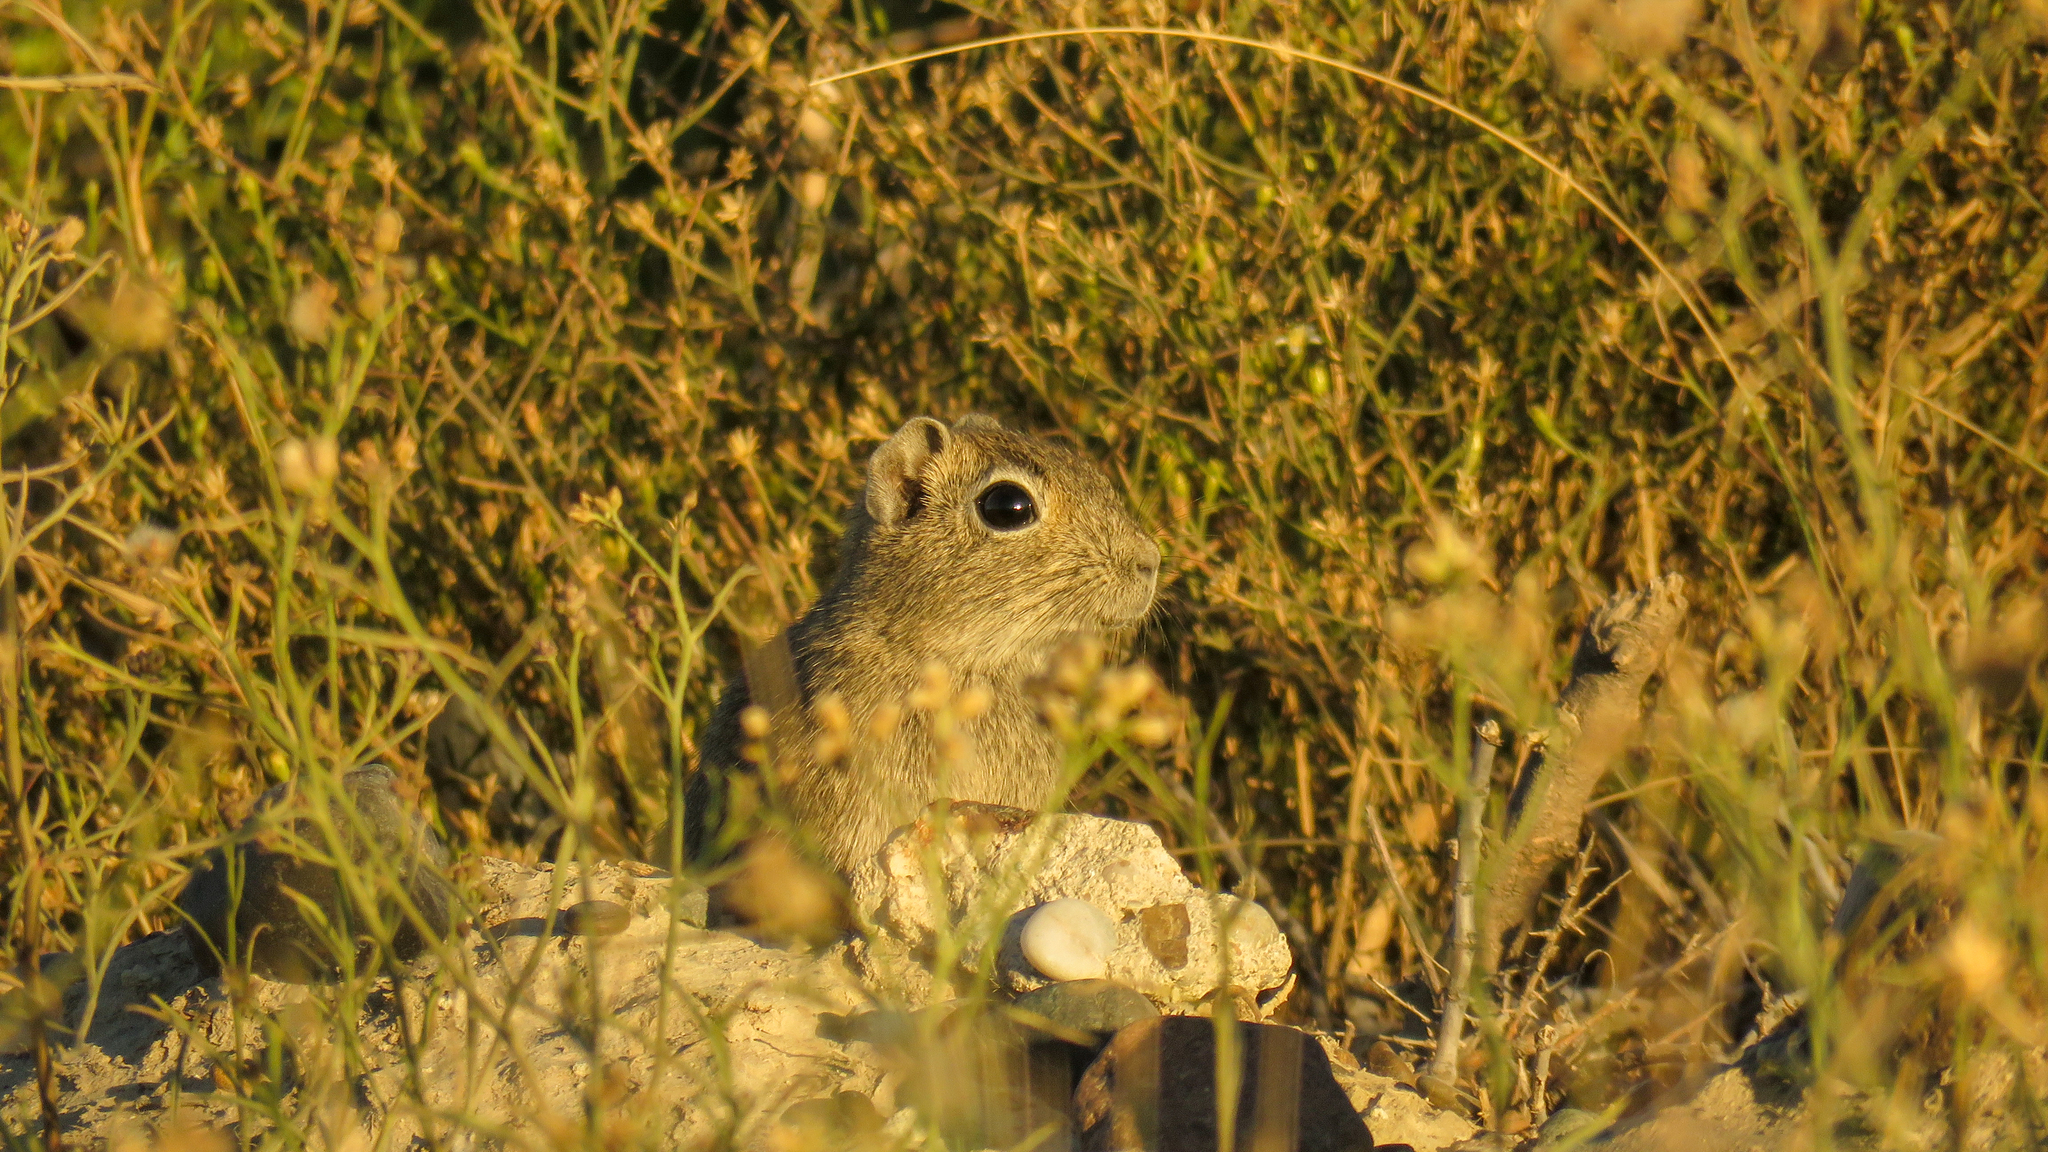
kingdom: Animalia
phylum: Chordata
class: Mammalia
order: Rodentia
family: Caviidae
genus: Microcavia
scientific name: Microcavia australis
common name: Southern mountain cavy
